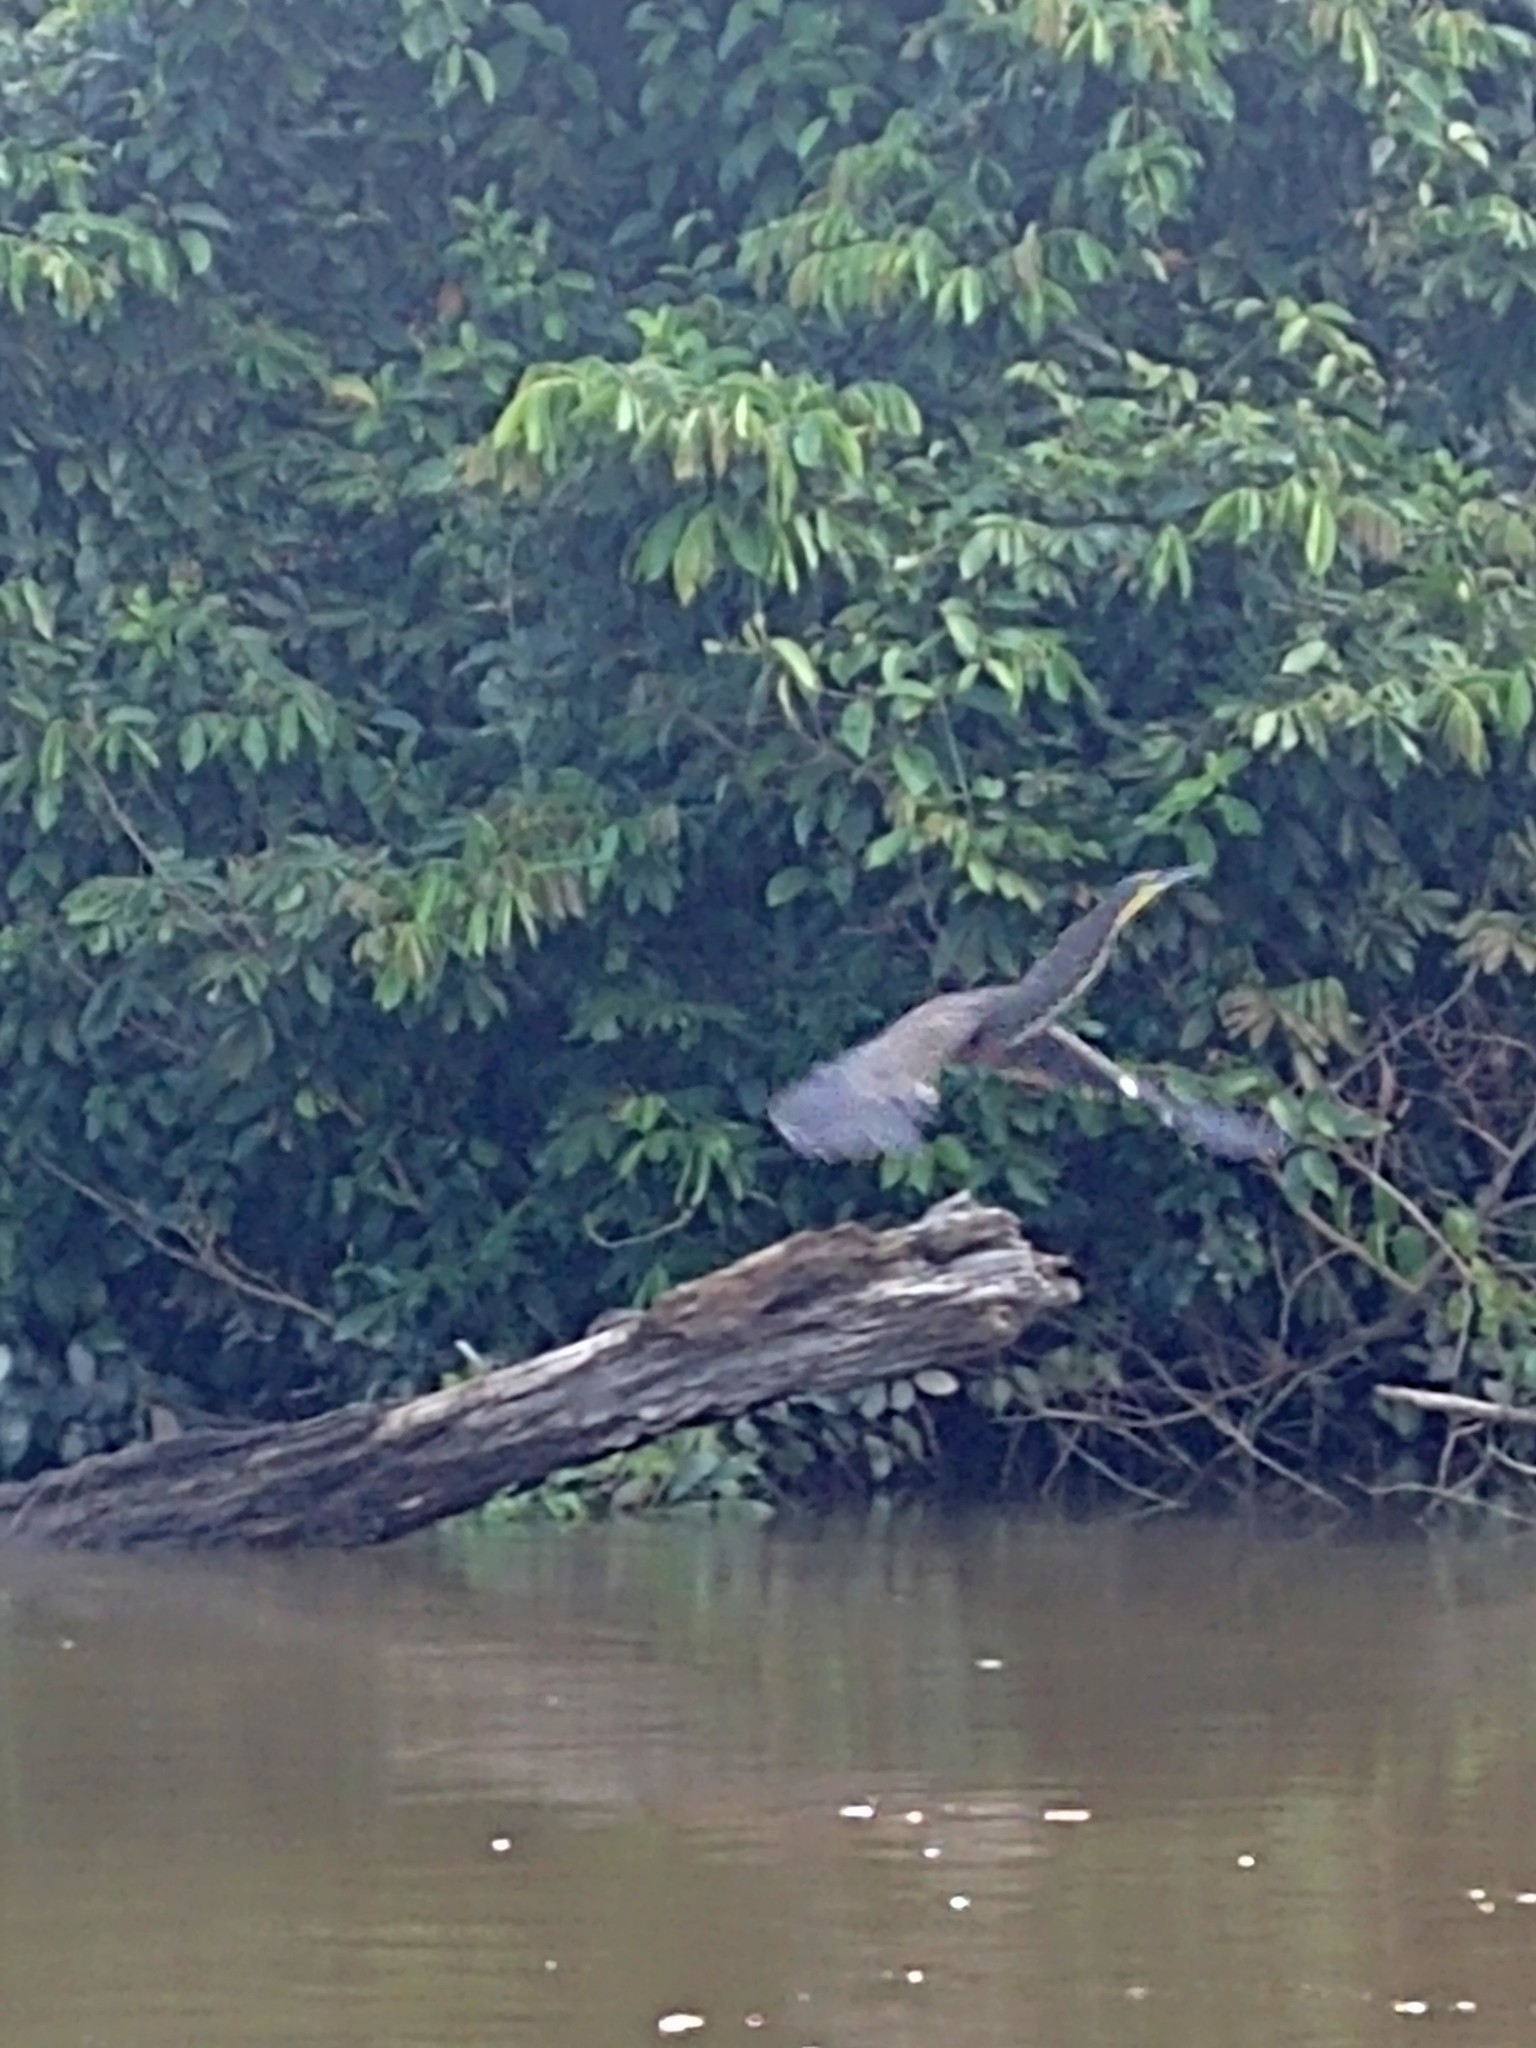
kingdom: Animalia
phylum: Chordata
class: Aves
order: Pelecaniformes
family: Ardeidae
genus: Tigrisoma
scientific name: Tigrisoma mexicanum
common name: Bare-throated tiger-heron
